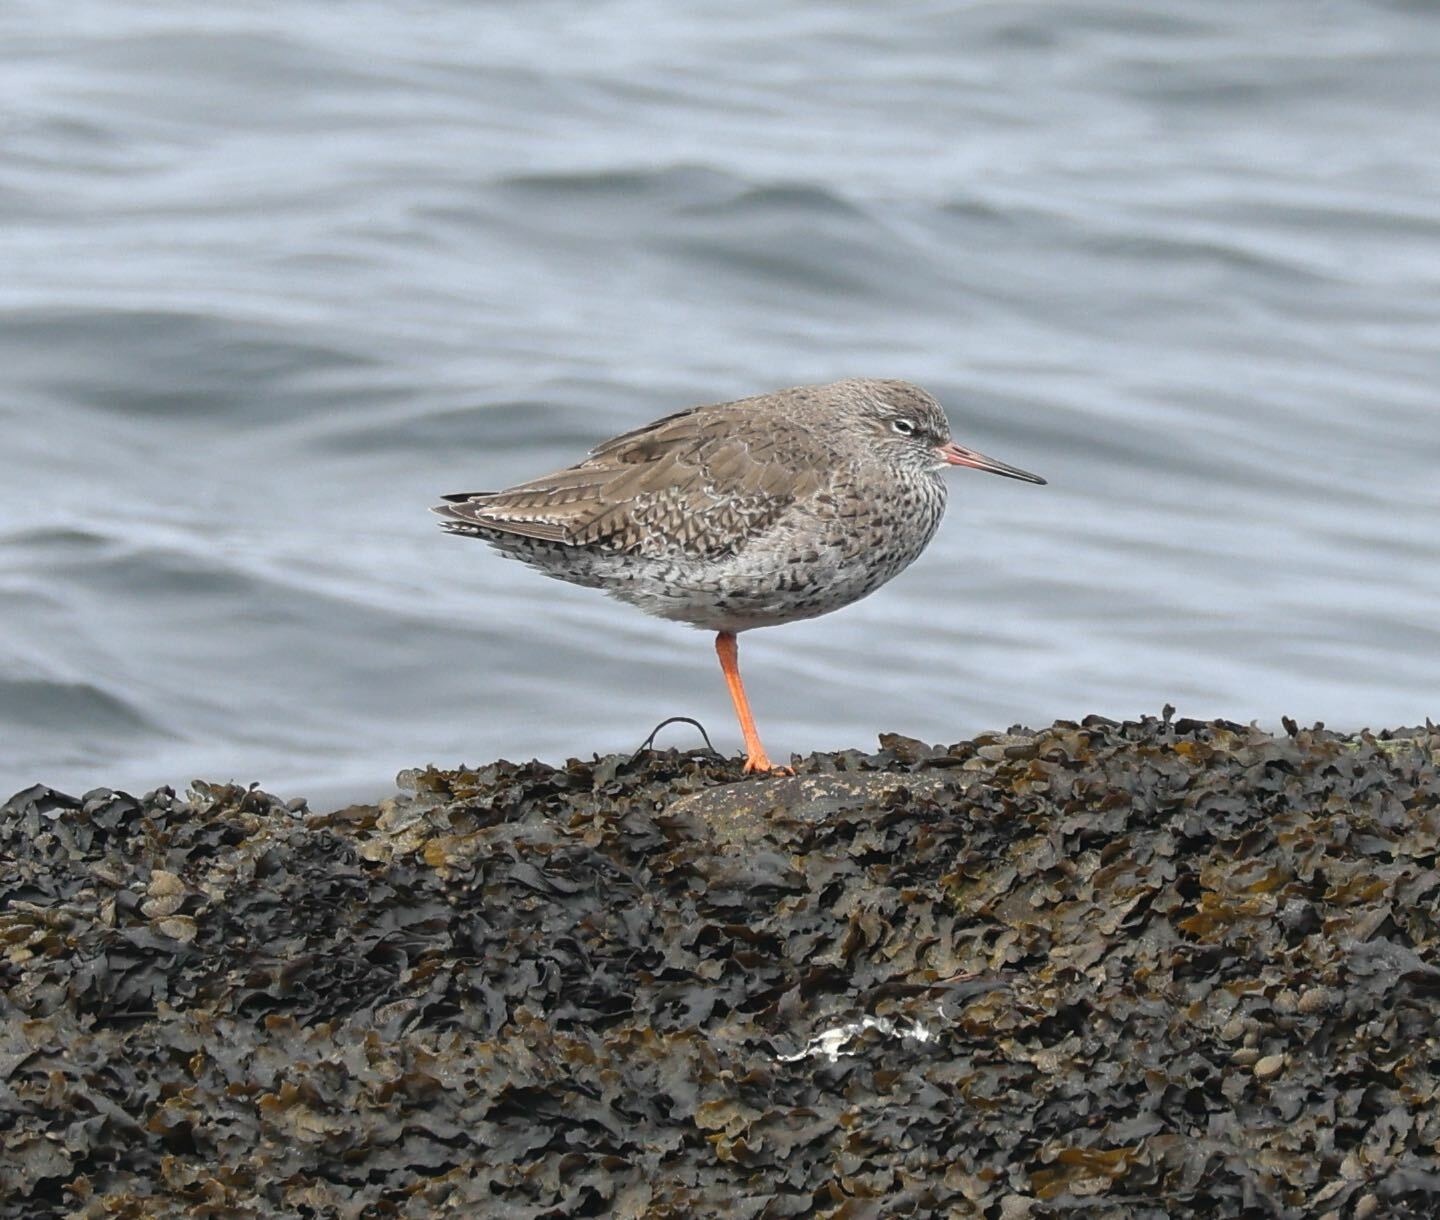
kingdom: Animalia
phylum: Chordata
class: Aves
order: Charadriiformes
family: Scolopacidae
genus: Tringa
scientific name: Tringa totanus
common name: Common redshank
